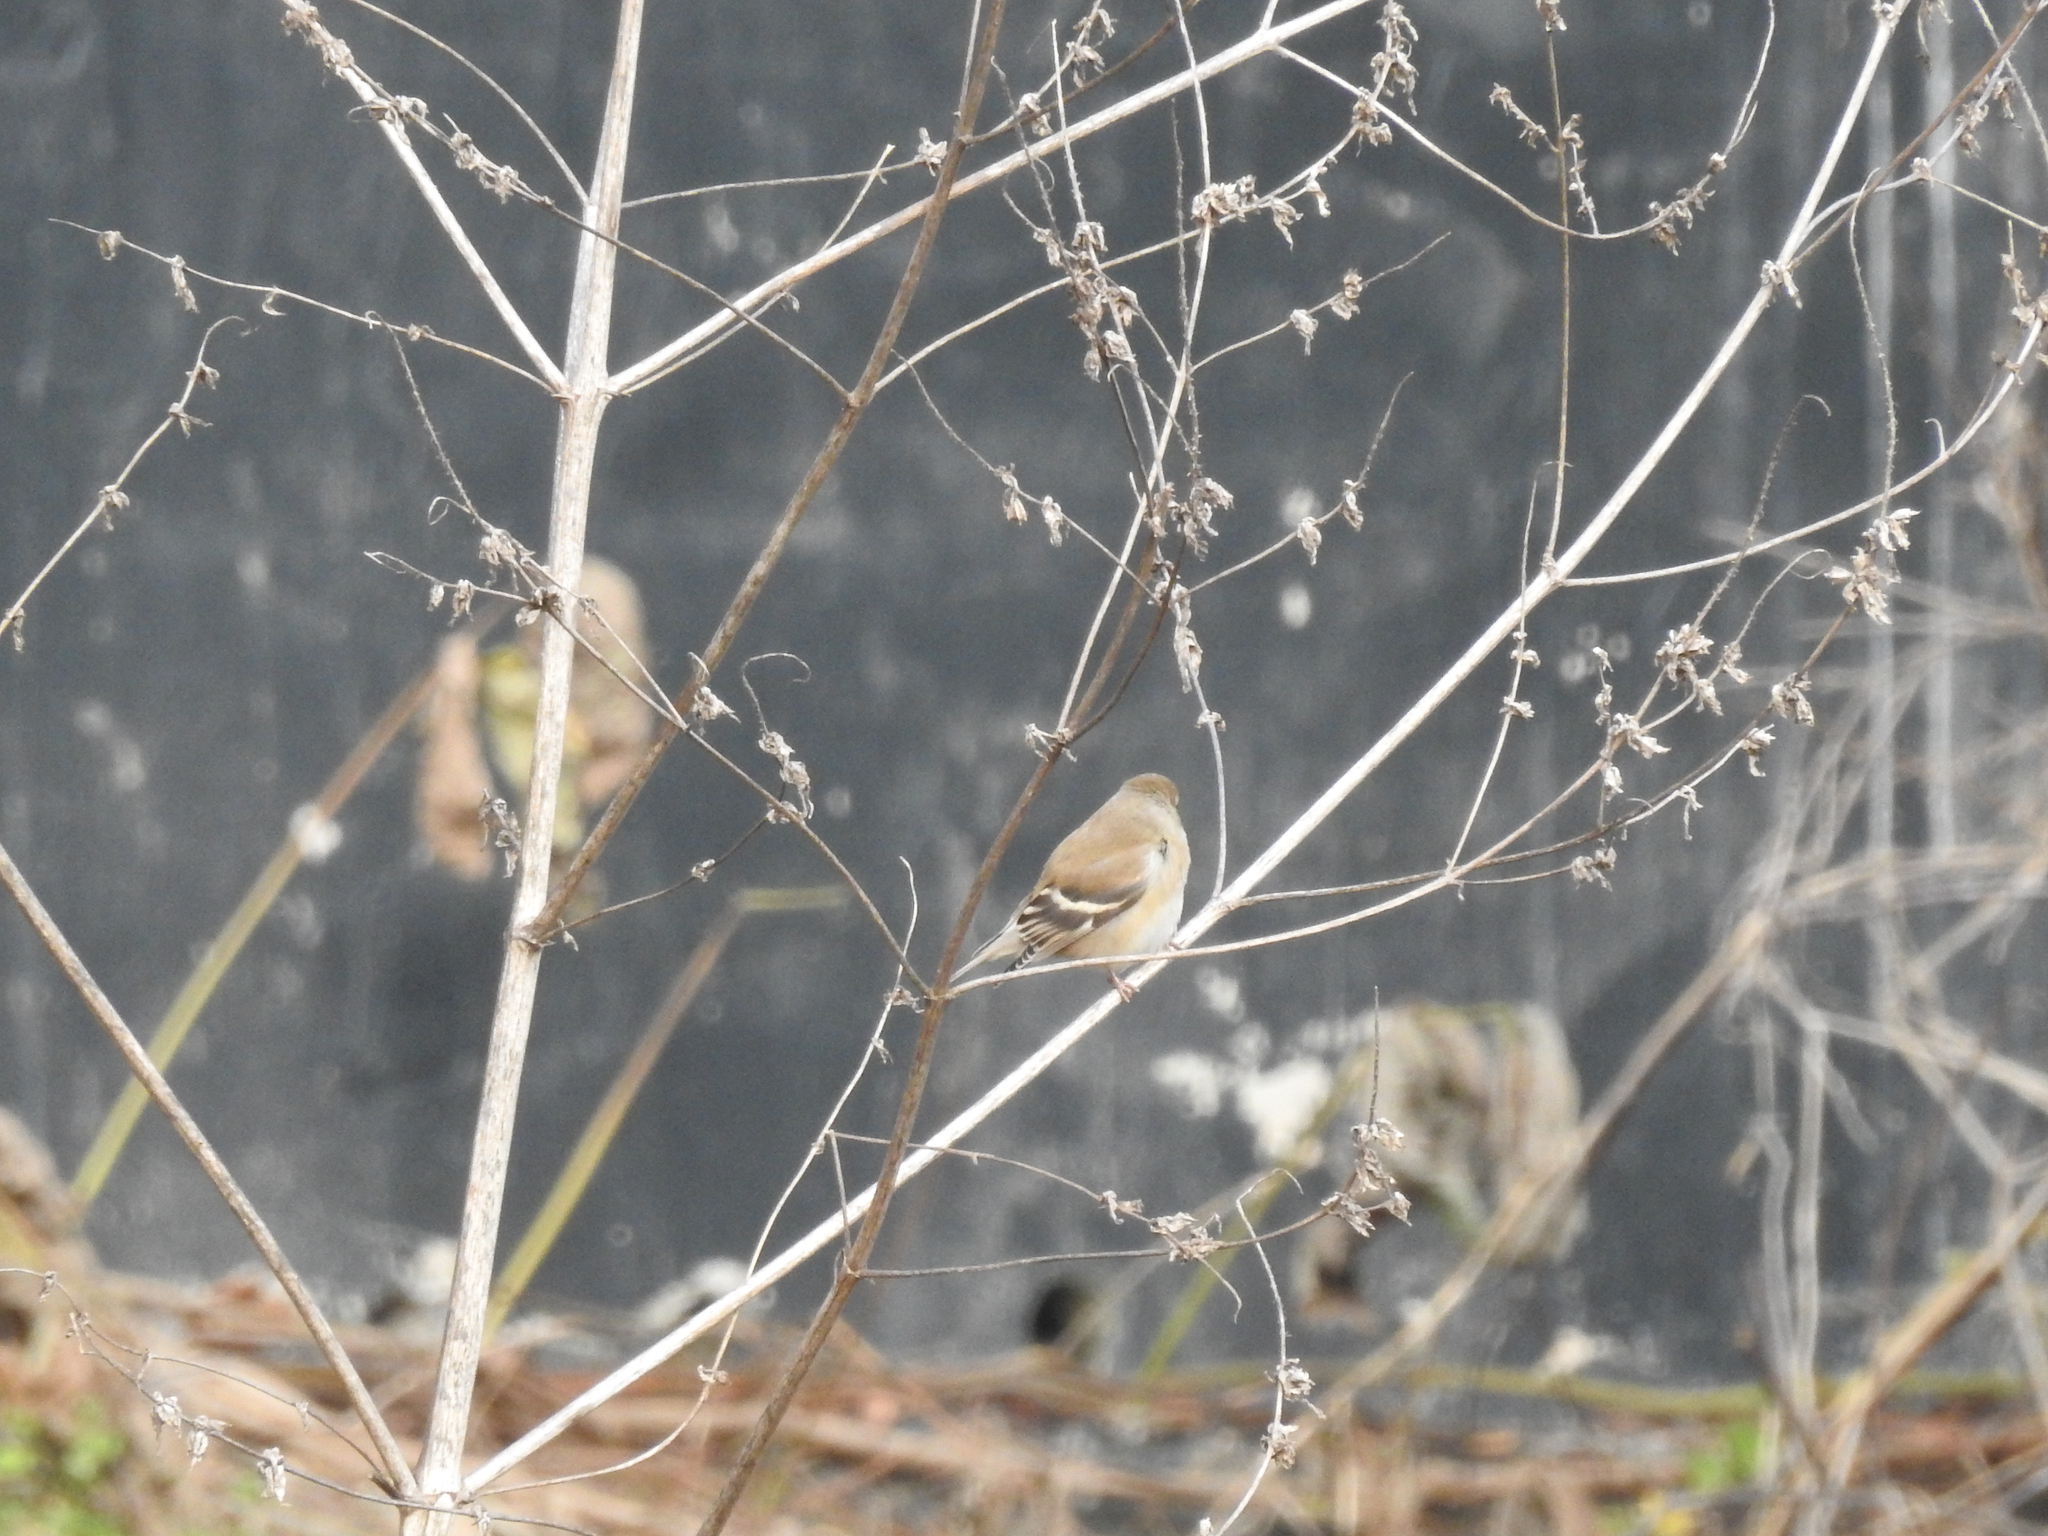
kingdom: Animalia
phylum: Chordata
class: Aves
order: Passeriformes
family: Fringillidae
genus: Spinus
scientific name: Spinus tristis
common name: American goldfinch
